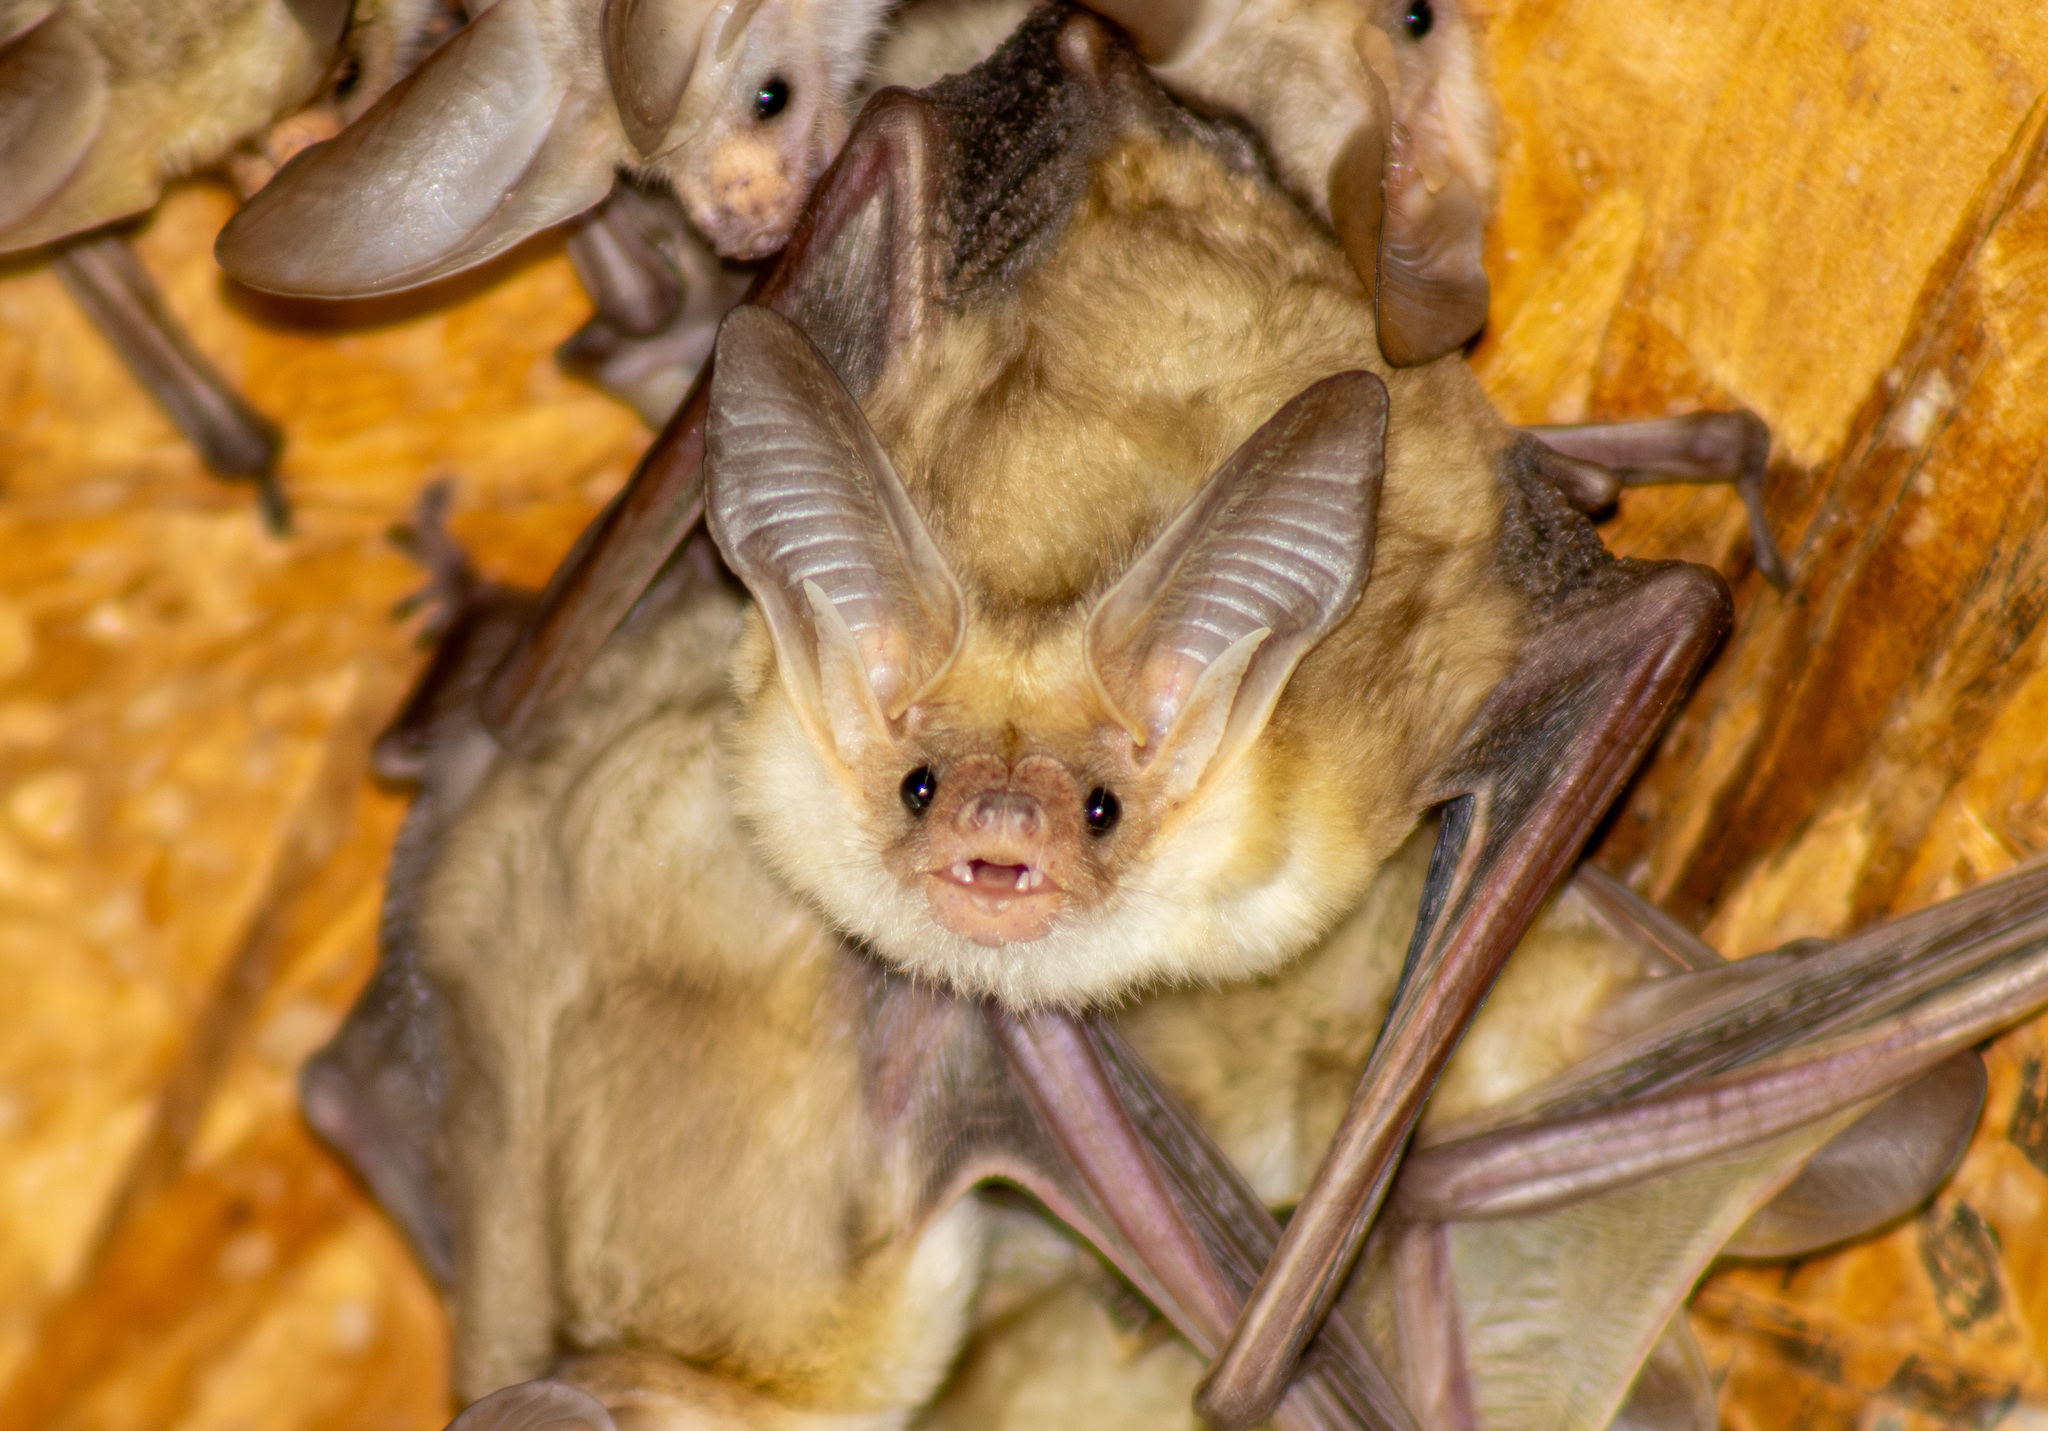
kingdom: Animalia
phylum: Chordata
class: Mammalia
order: Chiroptera
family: Vespertilionidae
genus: Antrozous
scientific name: Antrozous pallidus
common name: Pallid bat
